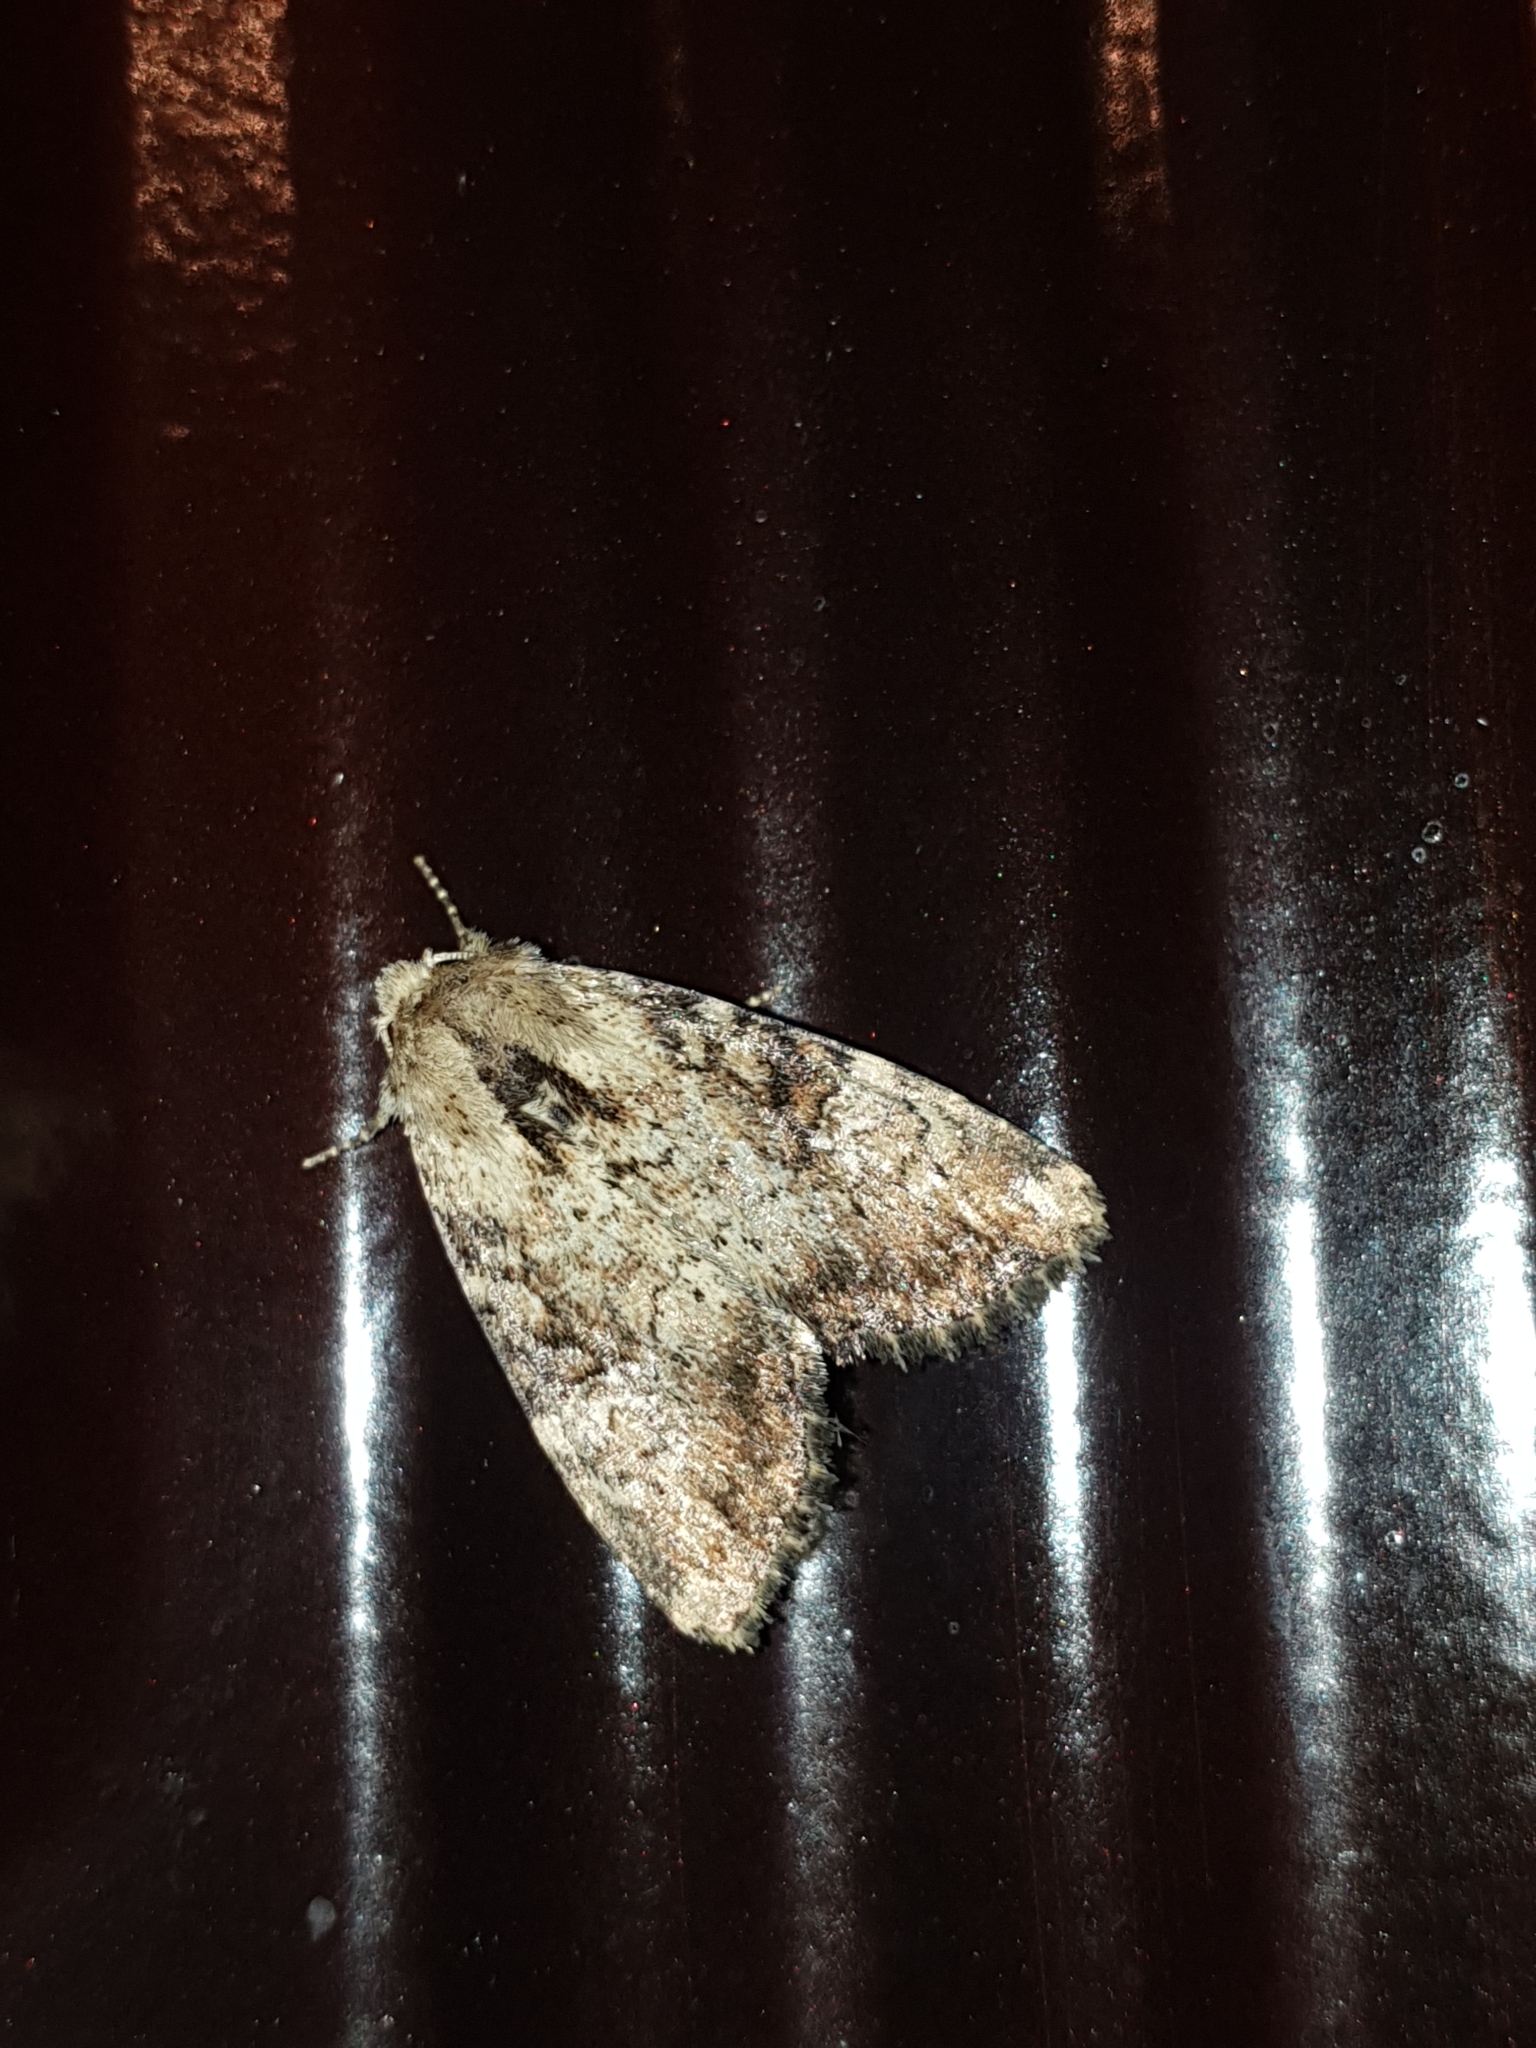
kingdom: Animalia
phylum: Arthropoda
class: Insecta
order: Lepidoptera
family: Noctuidae
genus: Loscopia
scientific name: Loscopia scolopacina
